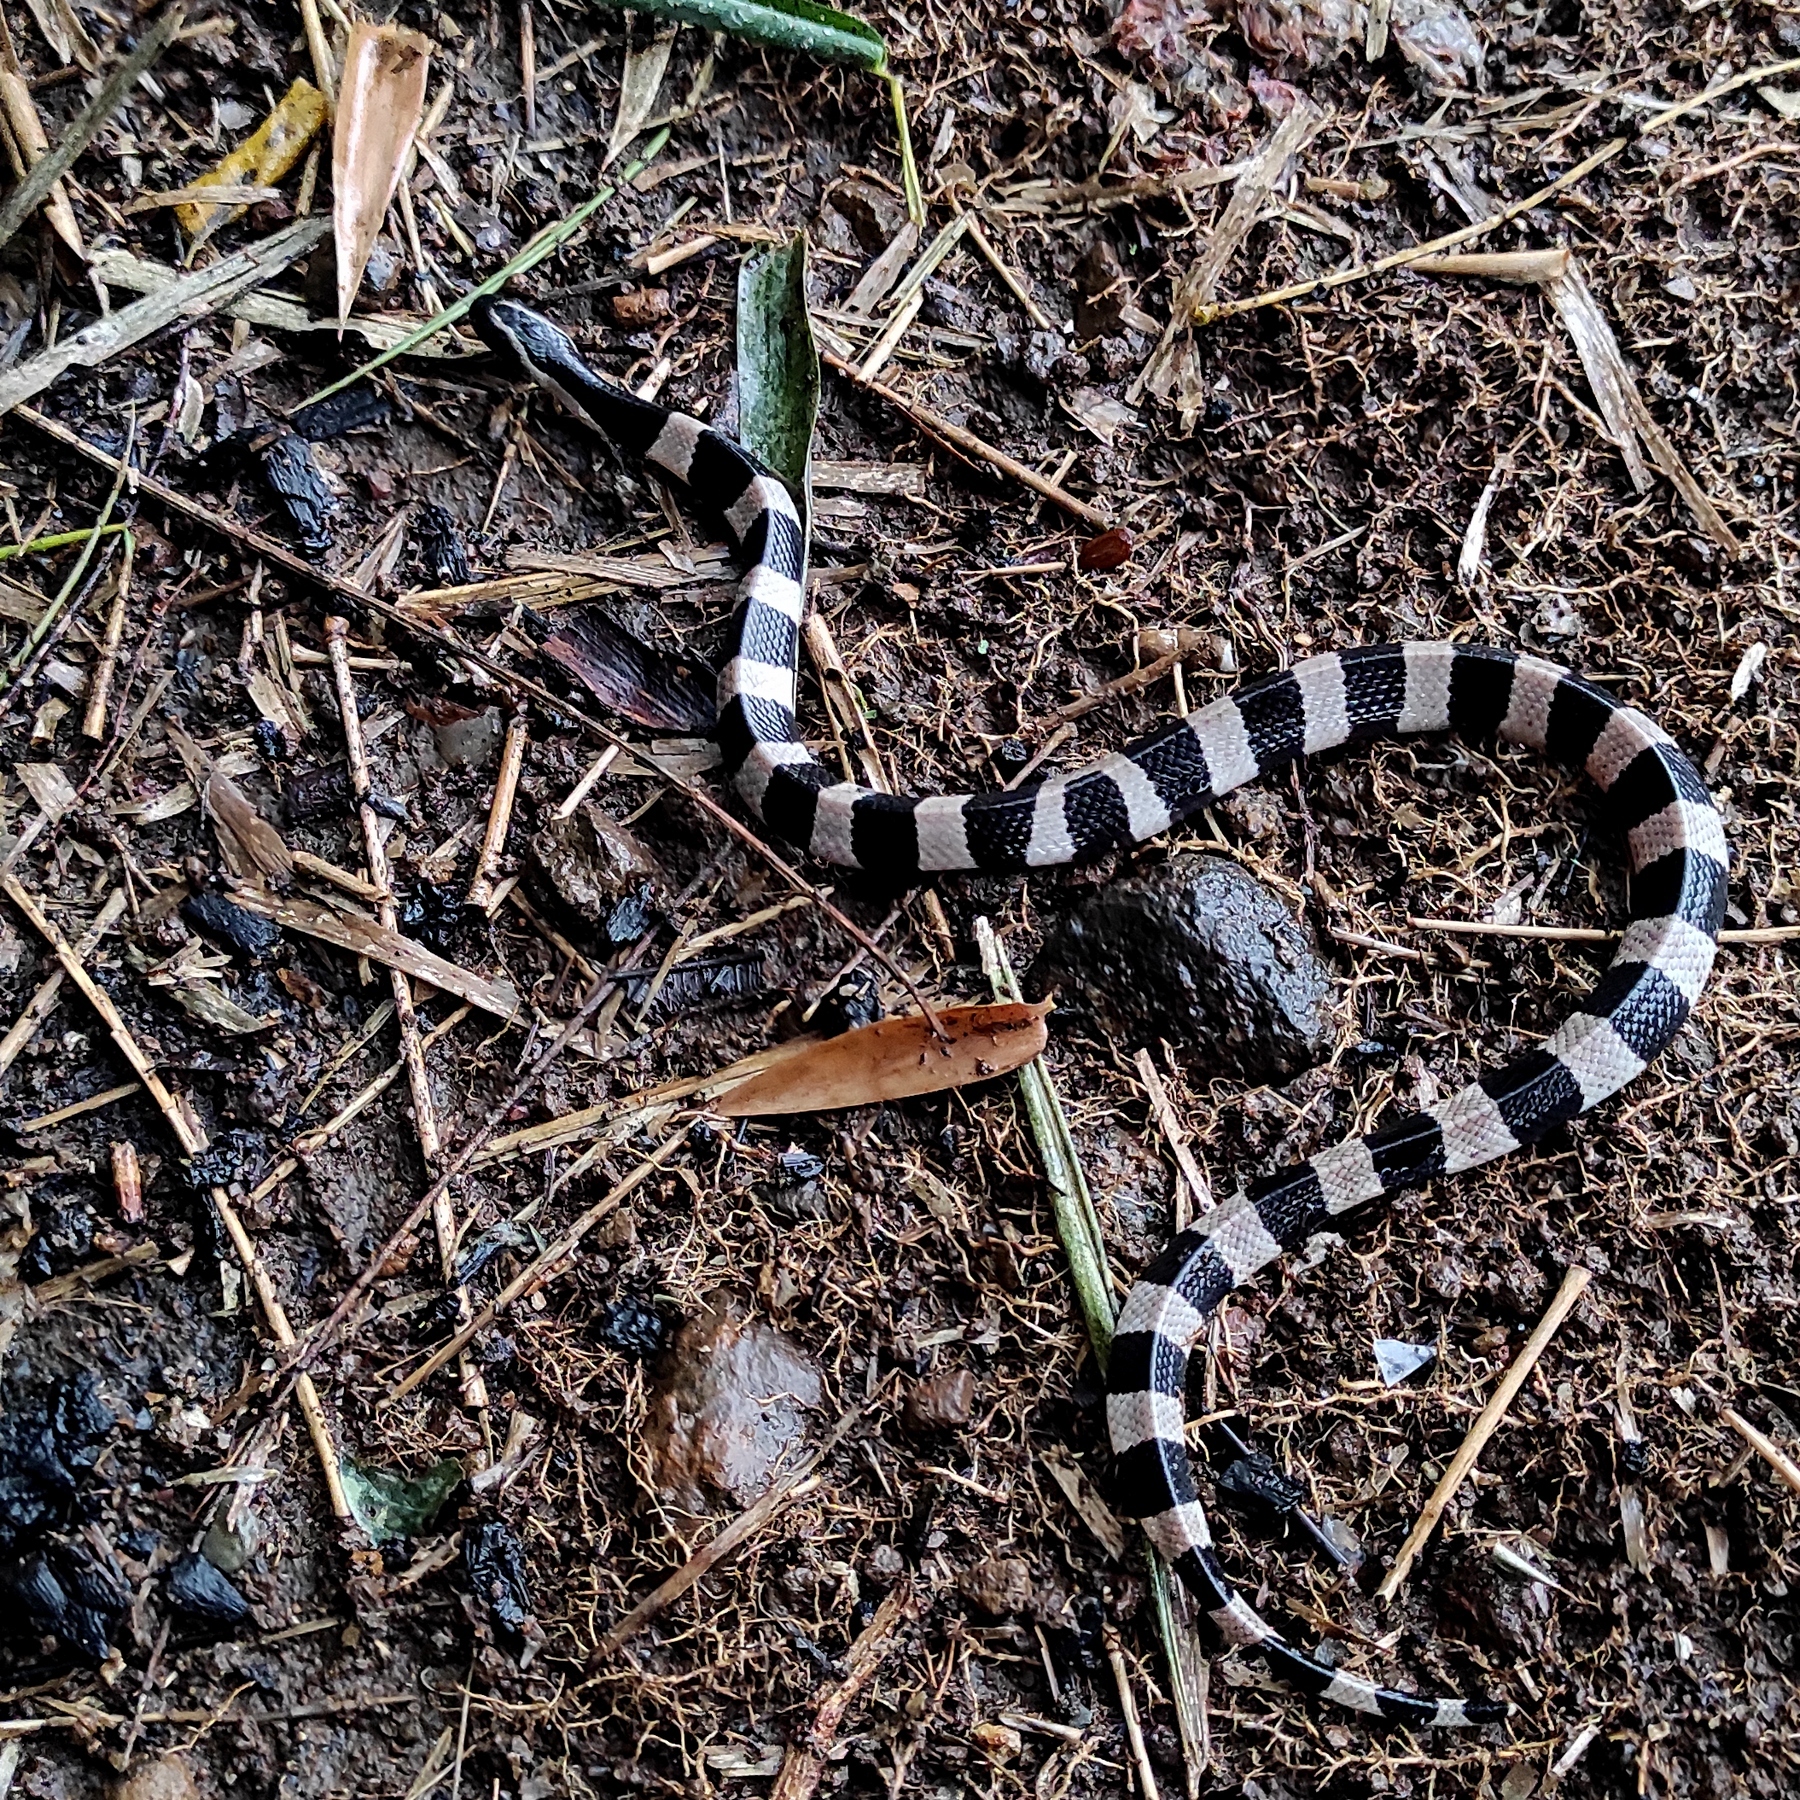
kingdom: Animalia
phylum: Chordata
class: Squamata
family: Elapidae
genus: Bungarus
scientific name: Bungarus fasciatus
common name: Banded krait
